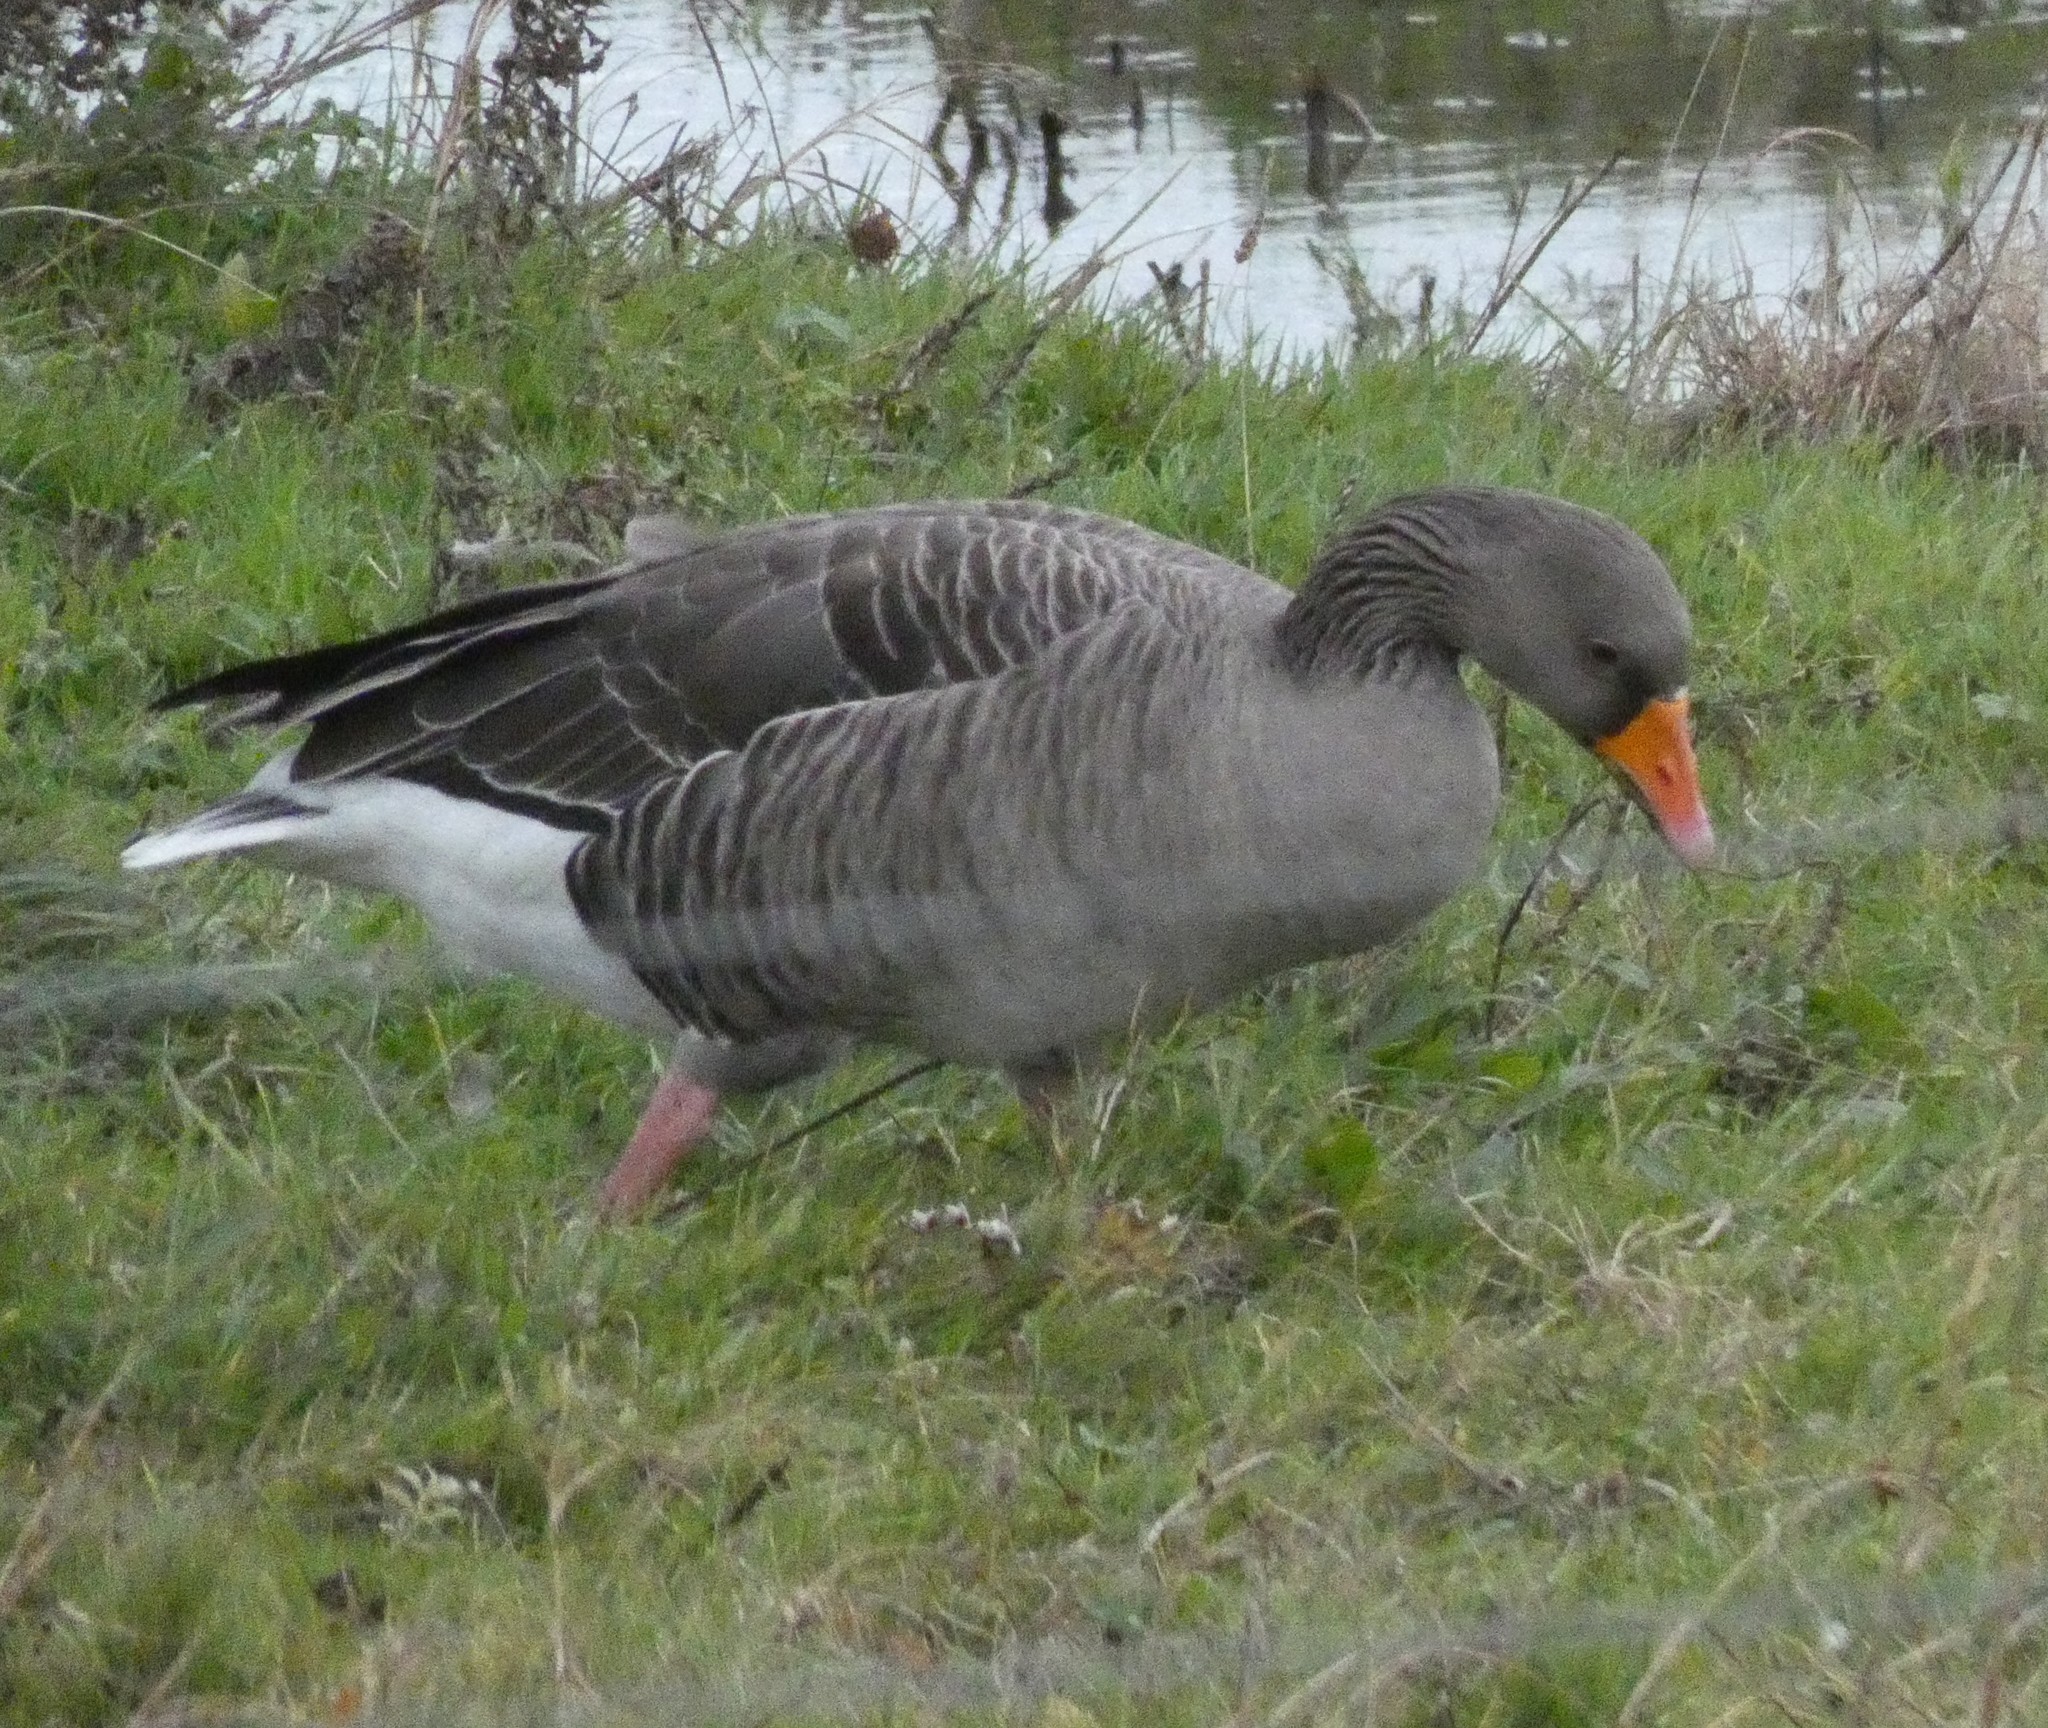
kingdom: Animalia
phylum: Chordata
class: Aves
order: Anseriformes
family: Anatidae
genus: Anser
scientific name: Anser anser
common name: Greylag goose
